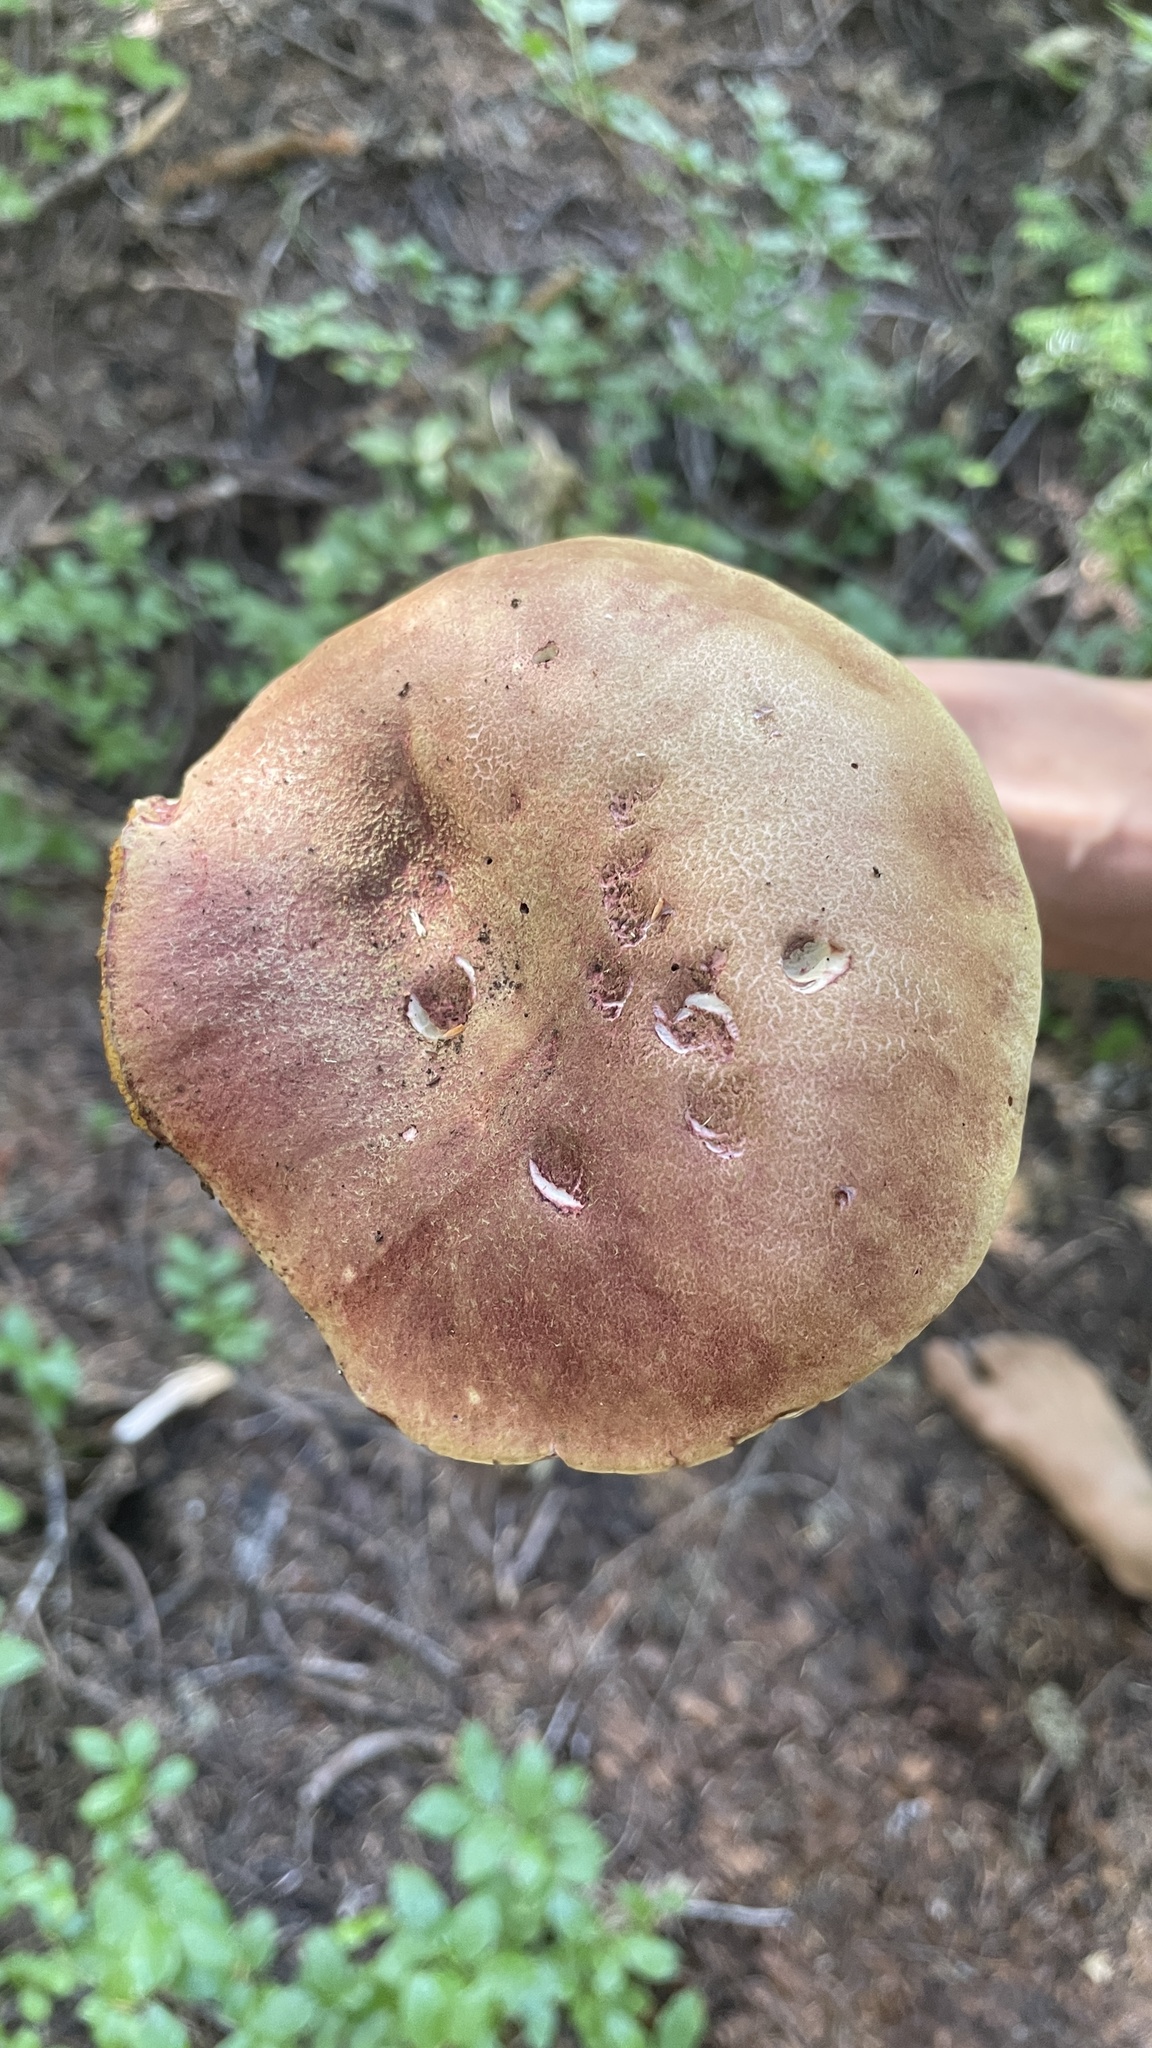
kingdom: Fungi
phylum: Basidiomycota
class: Agaricomycetes
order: Boletales
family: Boletaceae
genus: Boletus
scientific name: Boletus smithii
